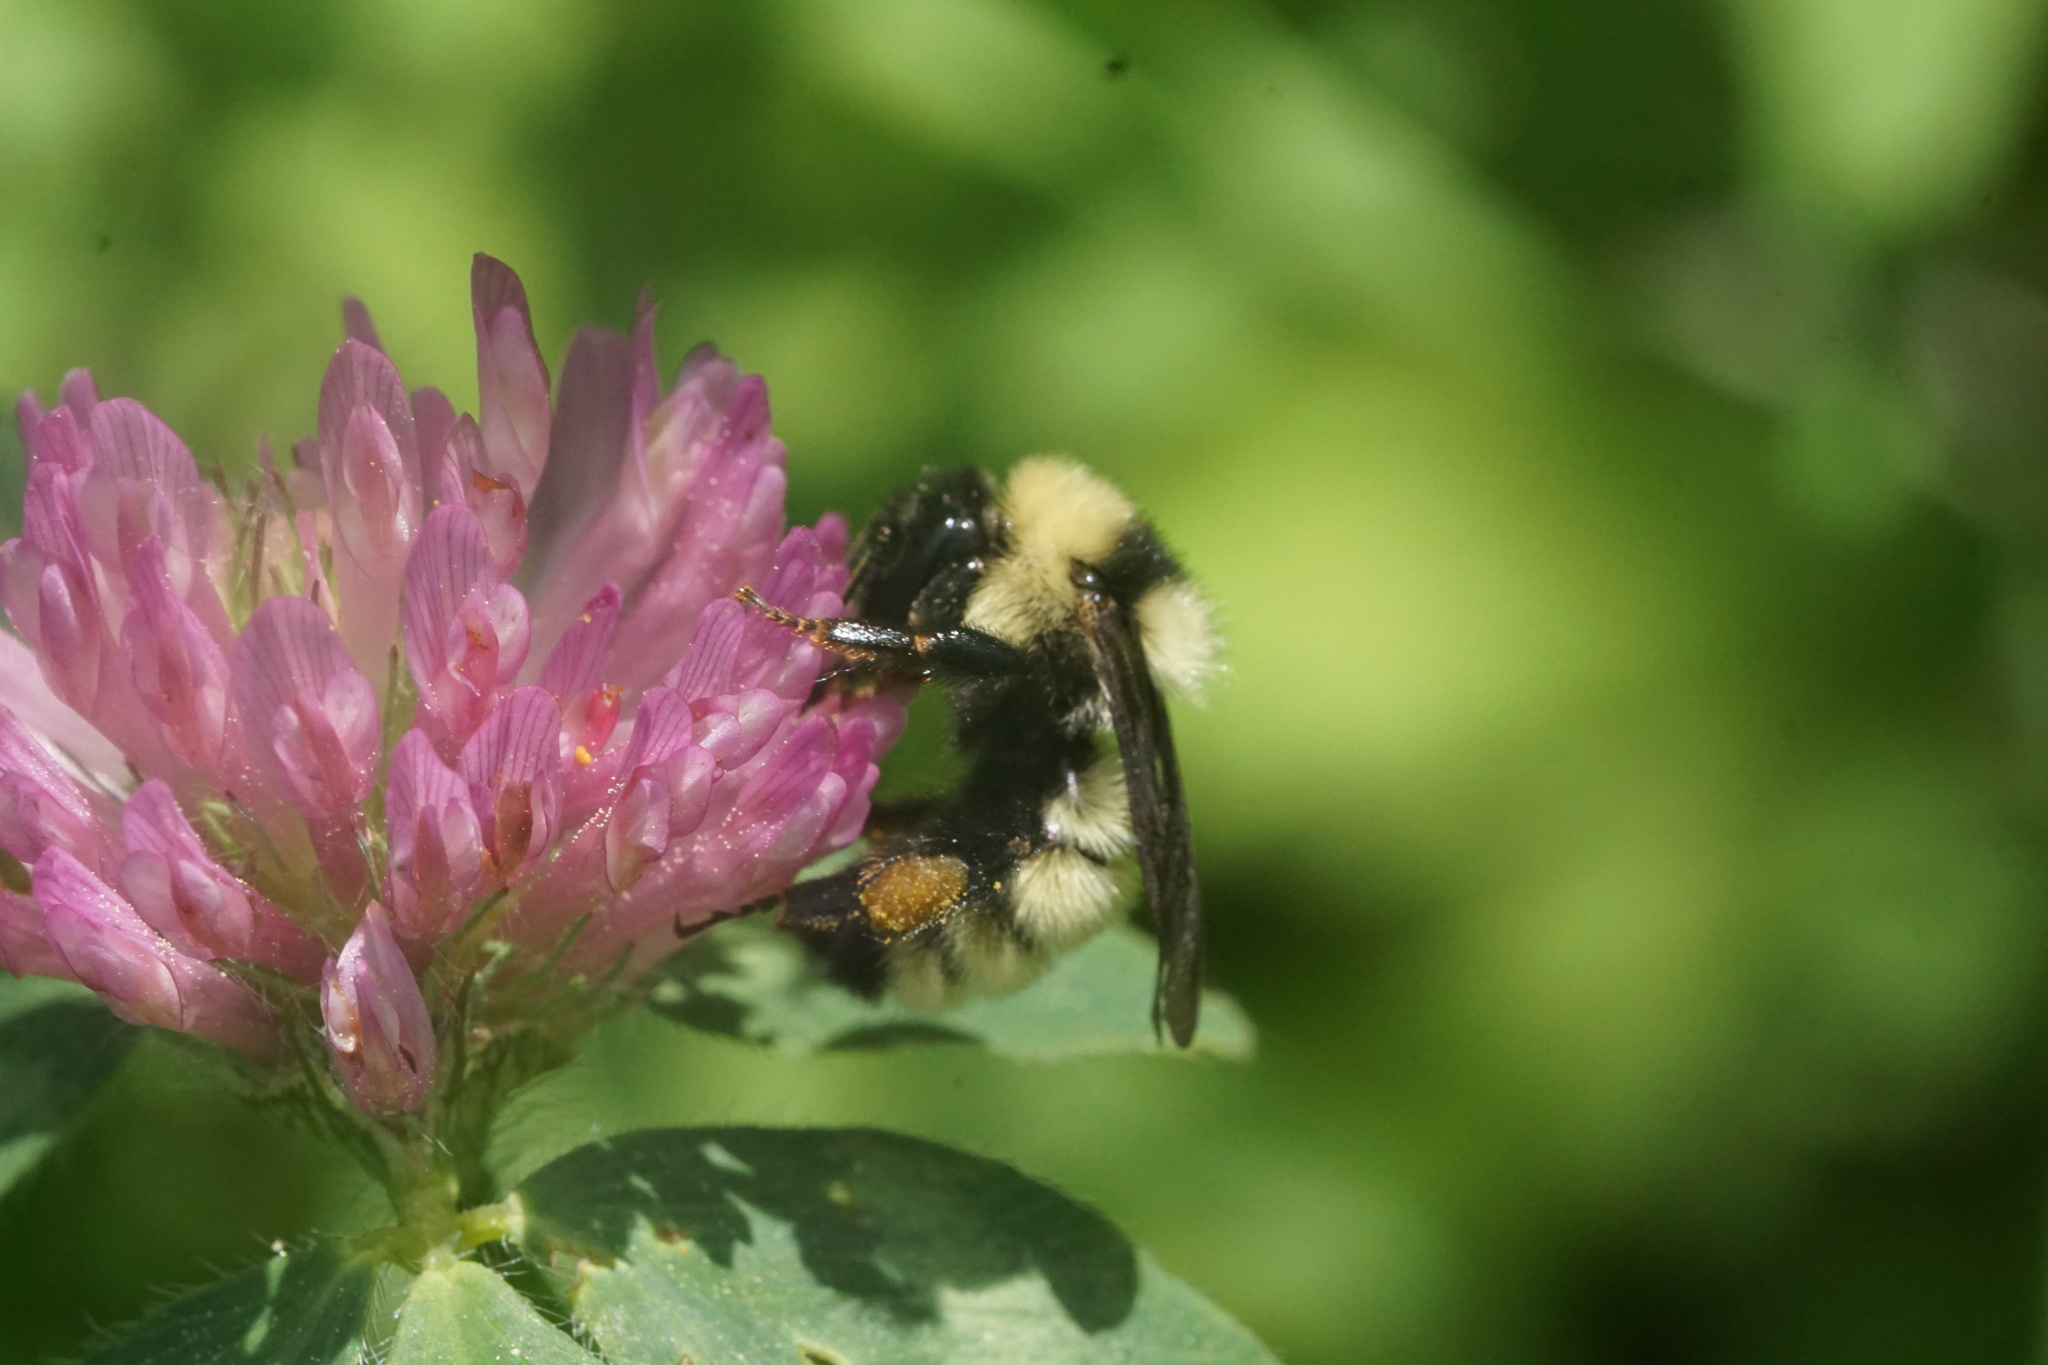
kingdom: Animalia
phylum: Arthropoda
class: Insecta
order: Hymenoptera
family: Apidae
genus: Bombus
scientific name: Bombus fervidus
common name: Yellow bumble bee
